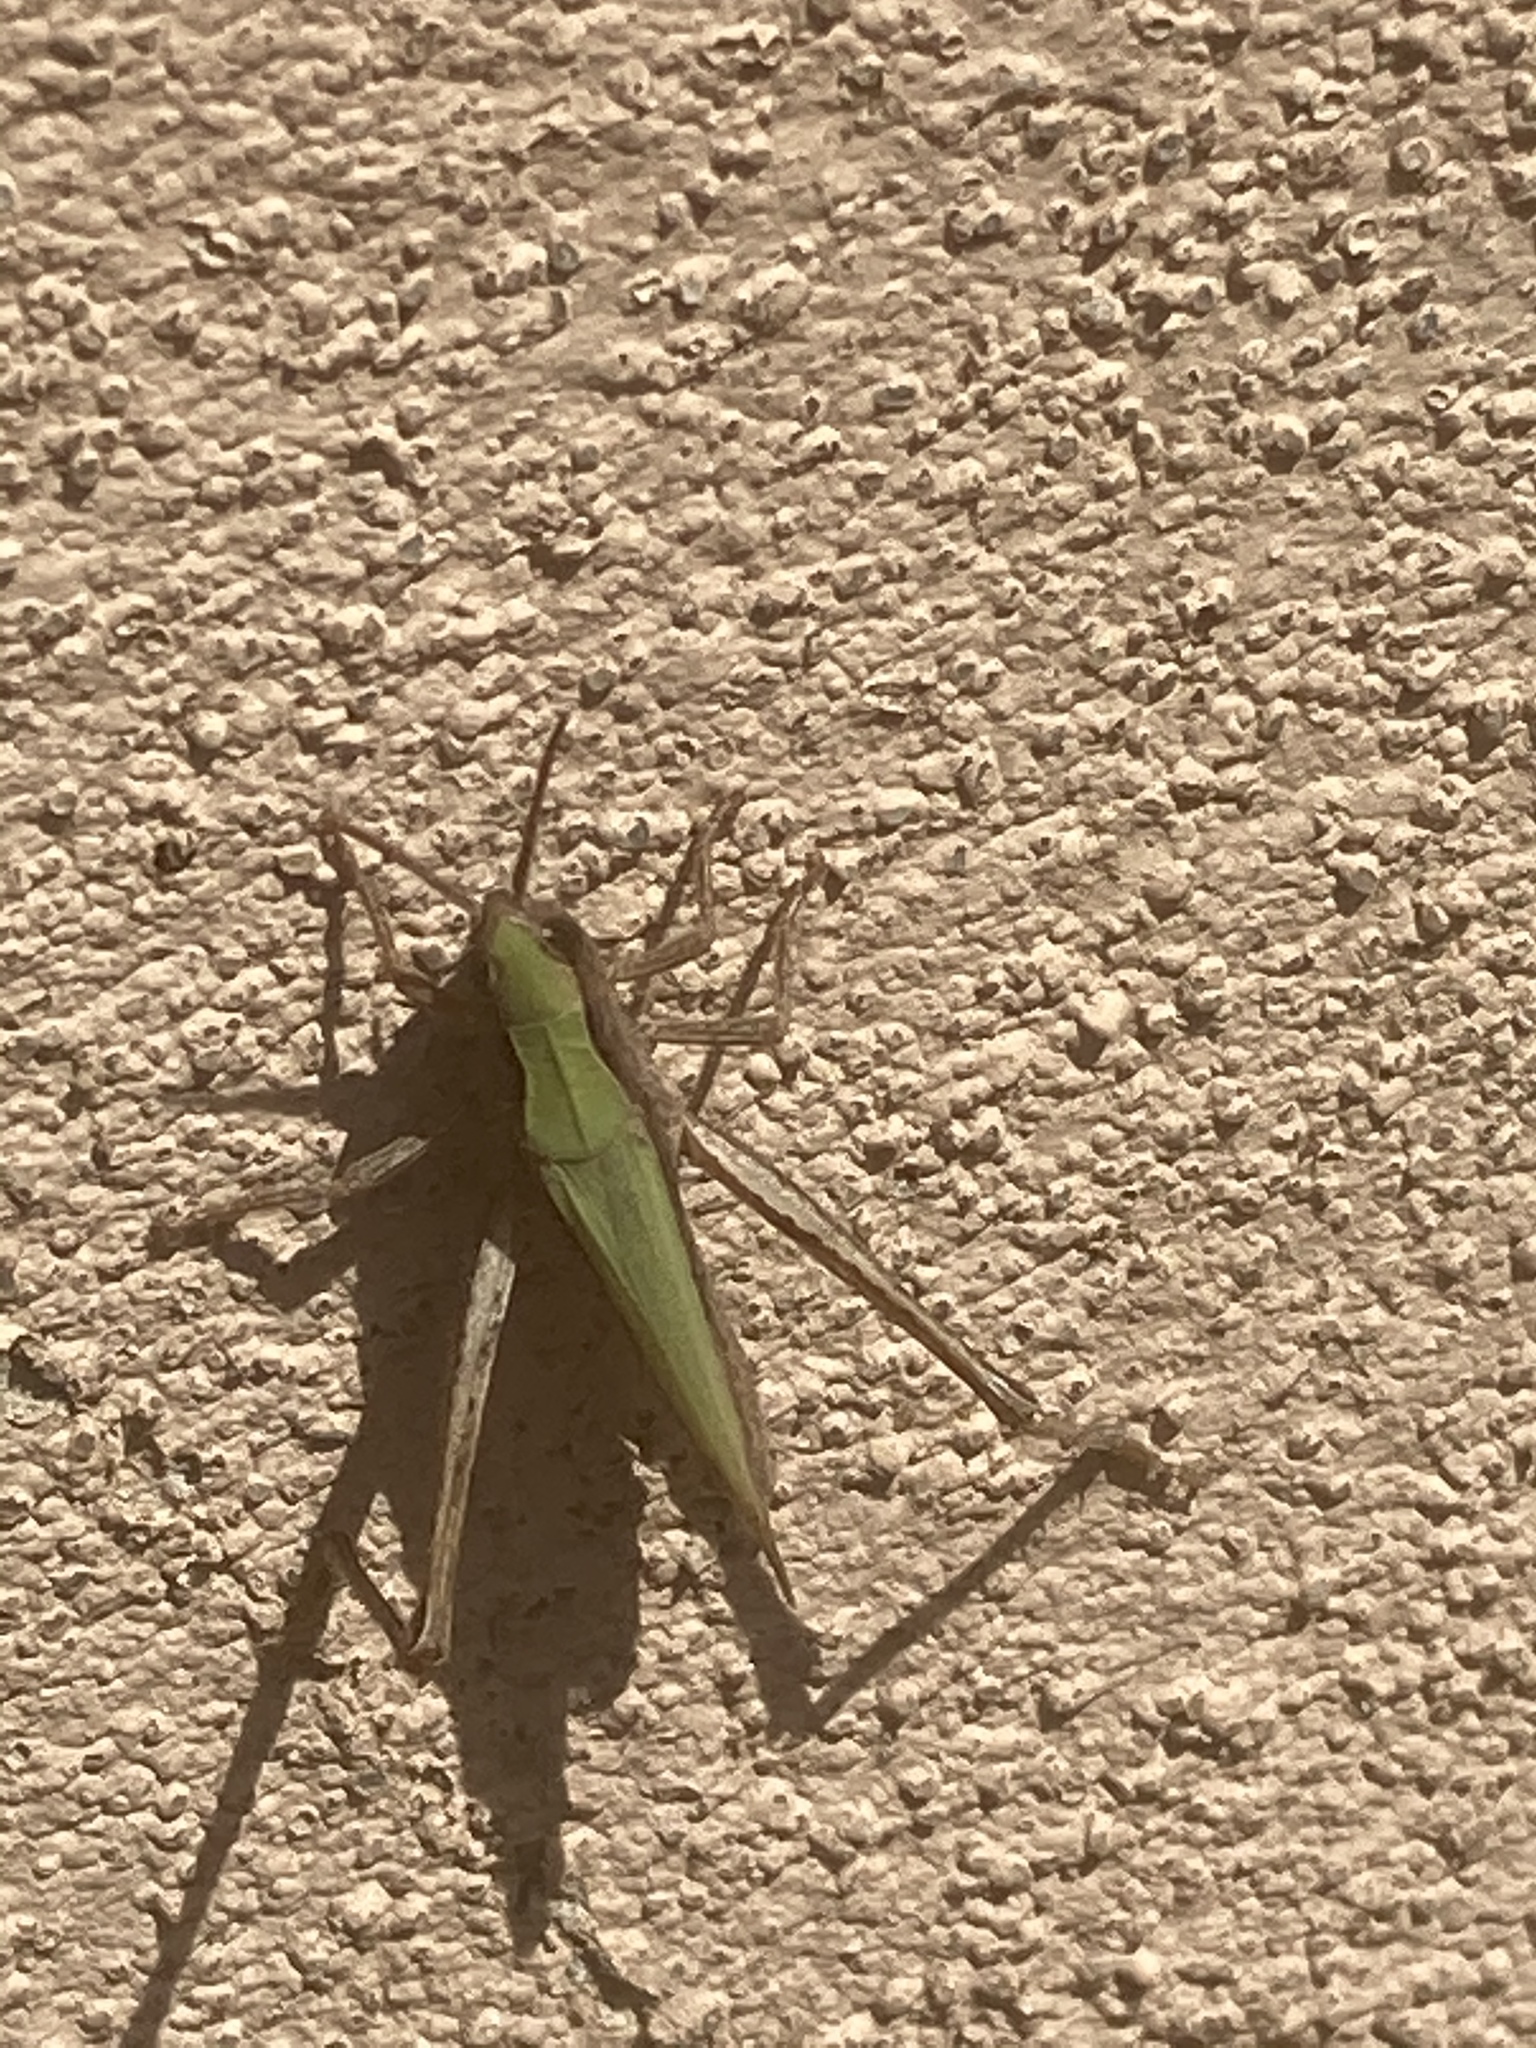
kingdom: Animalia
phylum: Arthropoda
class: Insecta
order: Orthoptera
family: Acrididae
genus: Chorthippus
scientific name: Chorthippus dorsatus
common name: Steppe grasshopper
